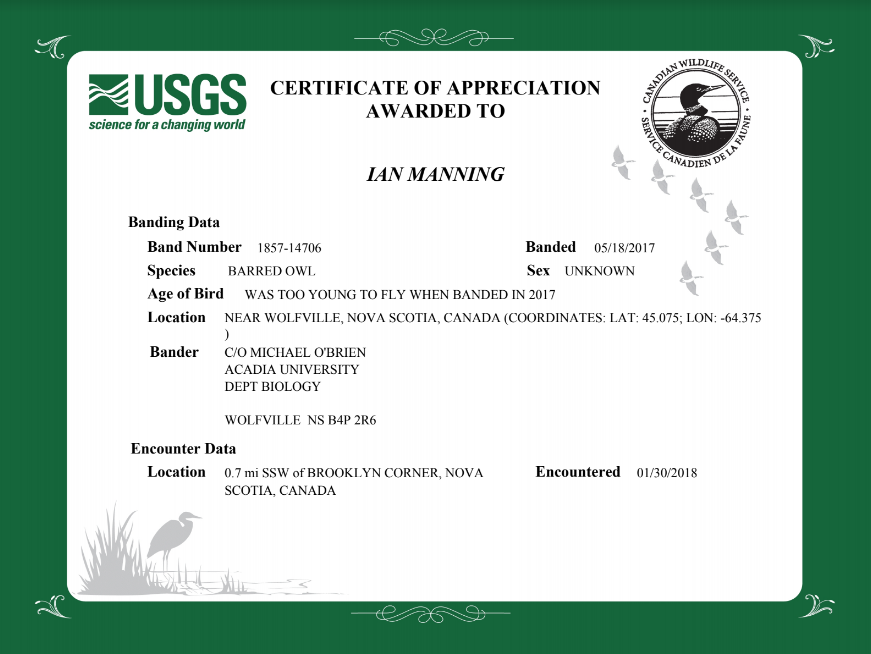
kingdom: Animalia
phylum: Chordata
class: Aves
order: Strigiformes
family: Strigidae
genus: Strix
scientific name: Strix varia
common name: Barred owl
